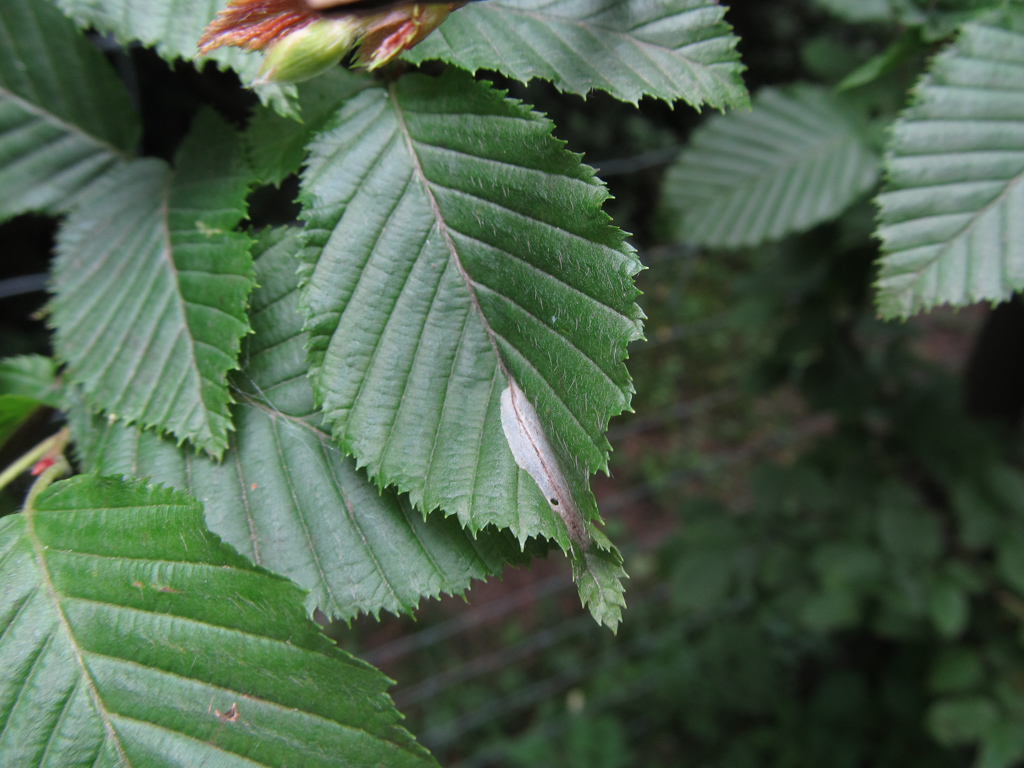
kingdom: Plantae
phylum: Tracheophyta
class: Magnoliopsida
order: Fagales
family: Betulaceae
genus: Carpinus
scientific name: Carpinus betulus
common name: Hornbeam
